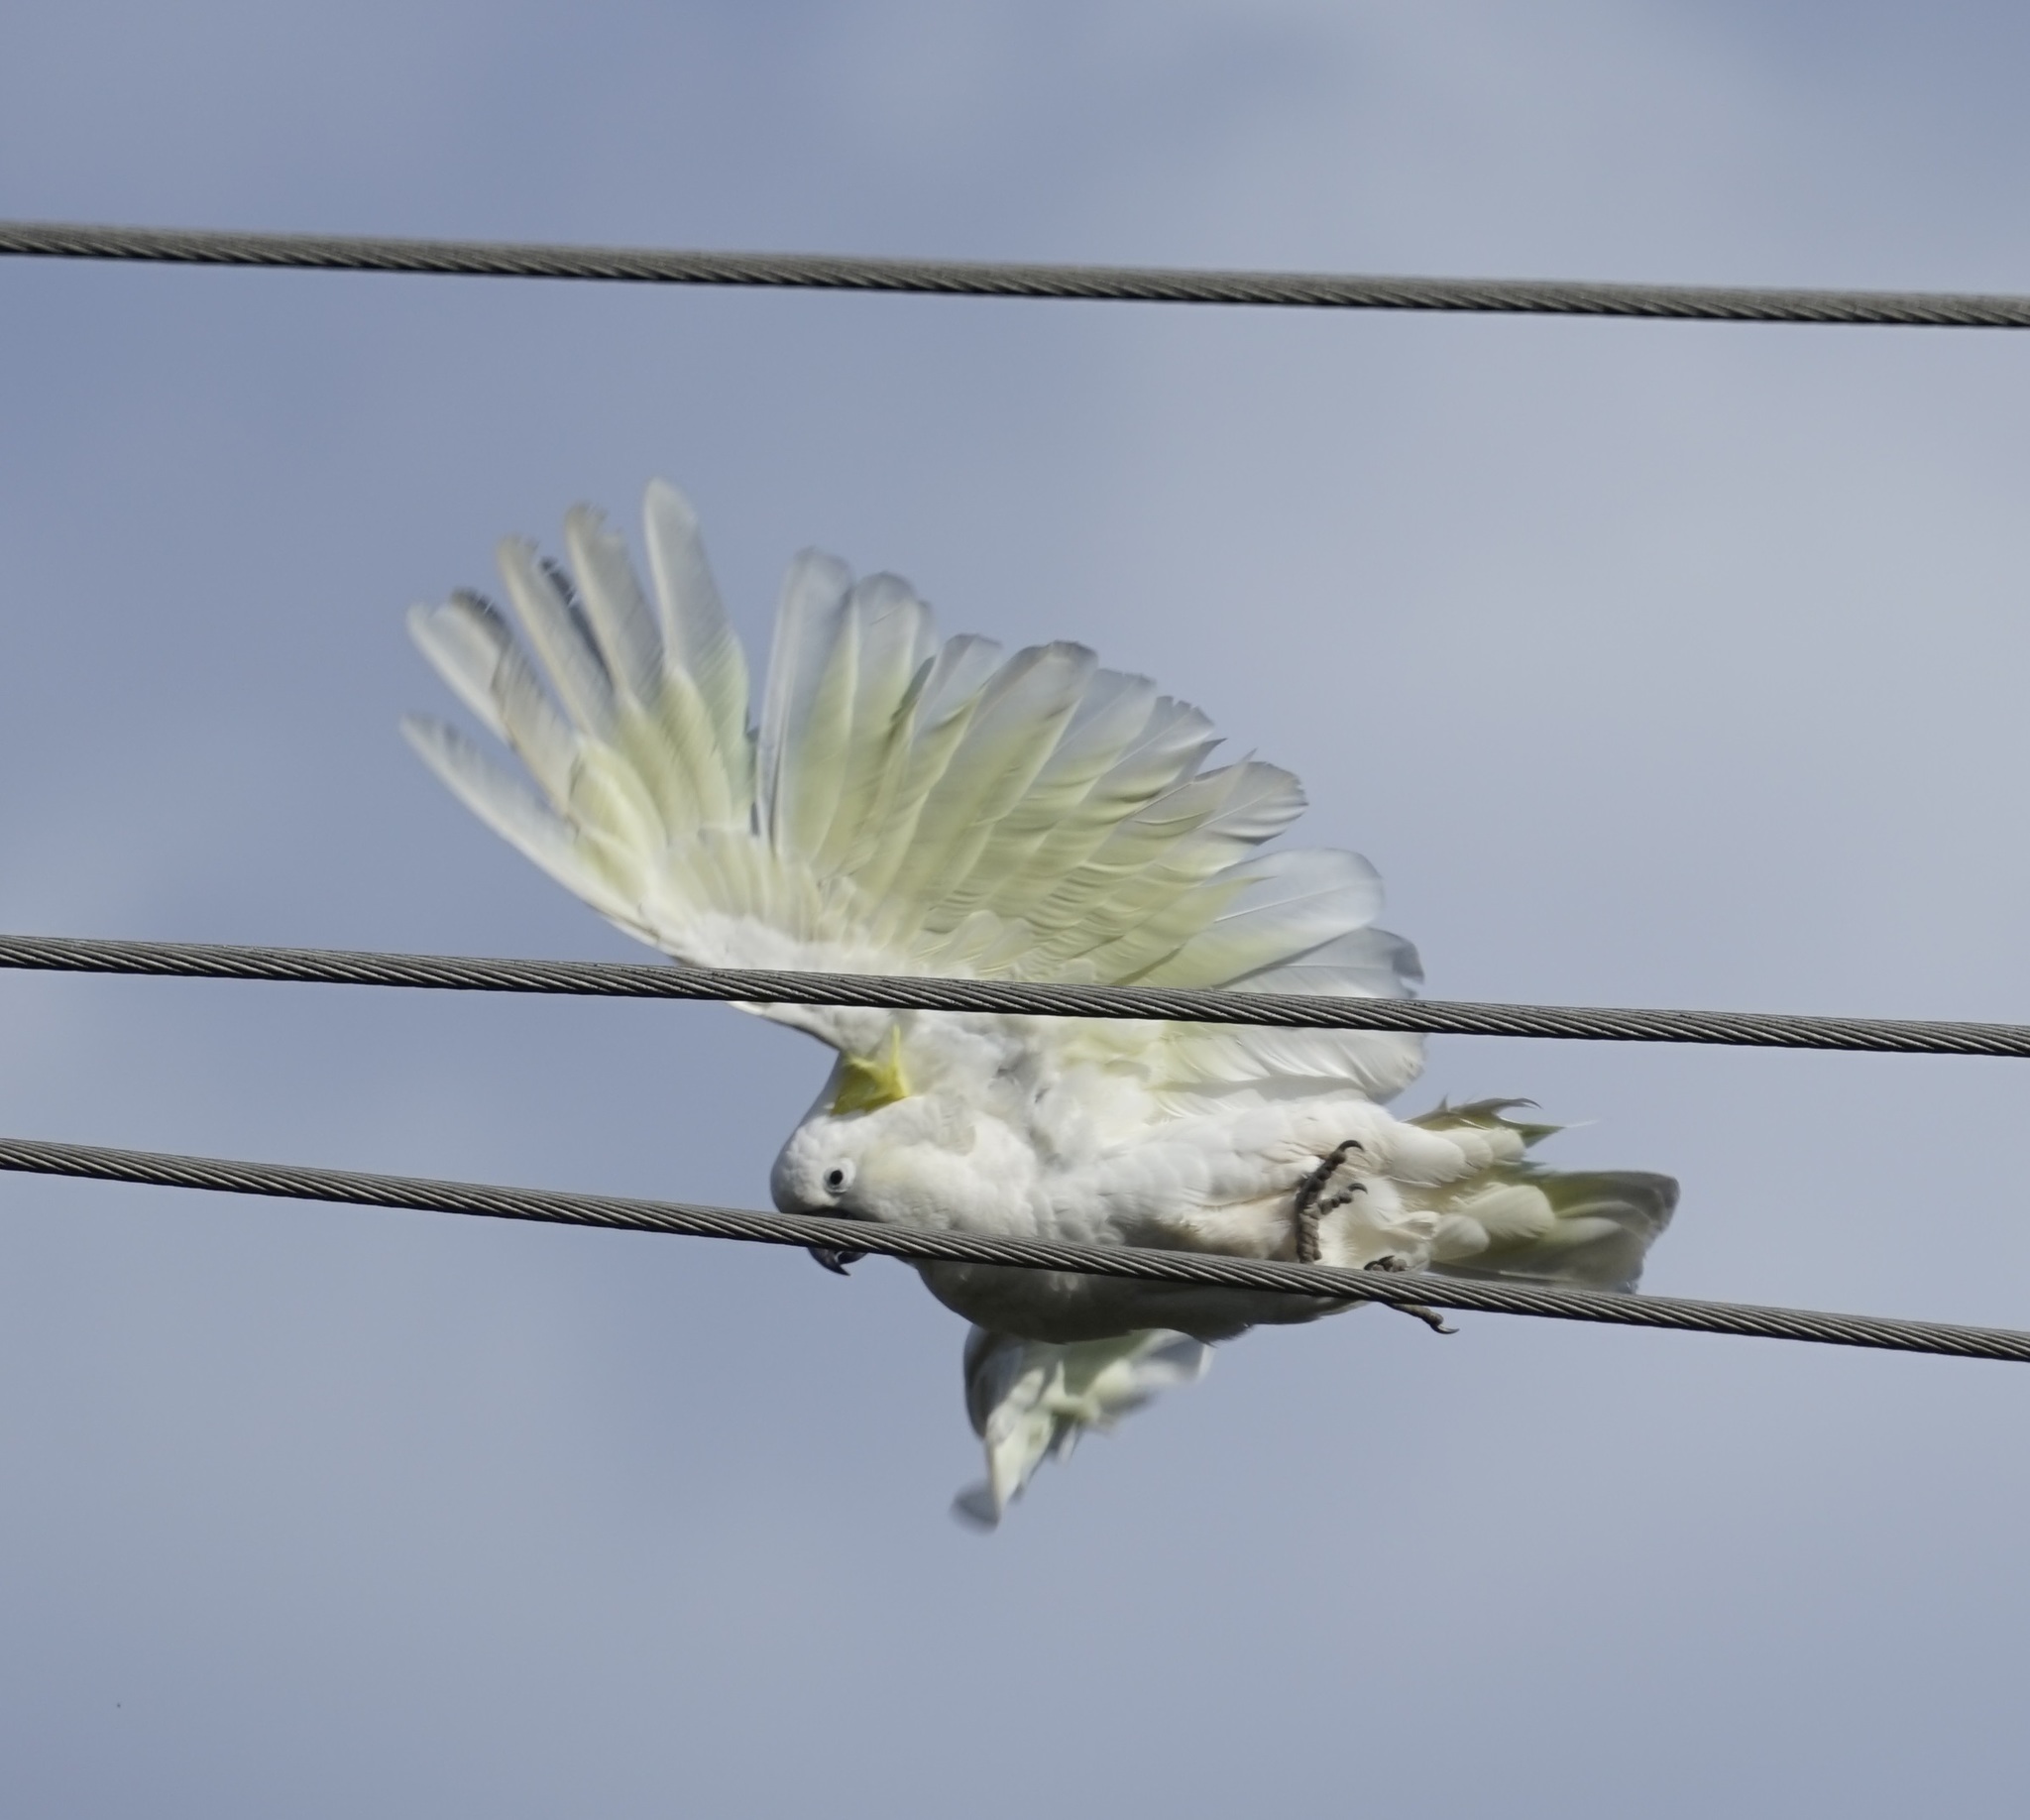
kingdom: Animalia
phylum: Chordata
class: Aves
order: Psittaciformes
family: Psittacidae
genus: Cacatua
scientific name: Cacatua galerita
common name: Sulphur-crested cockatoo
